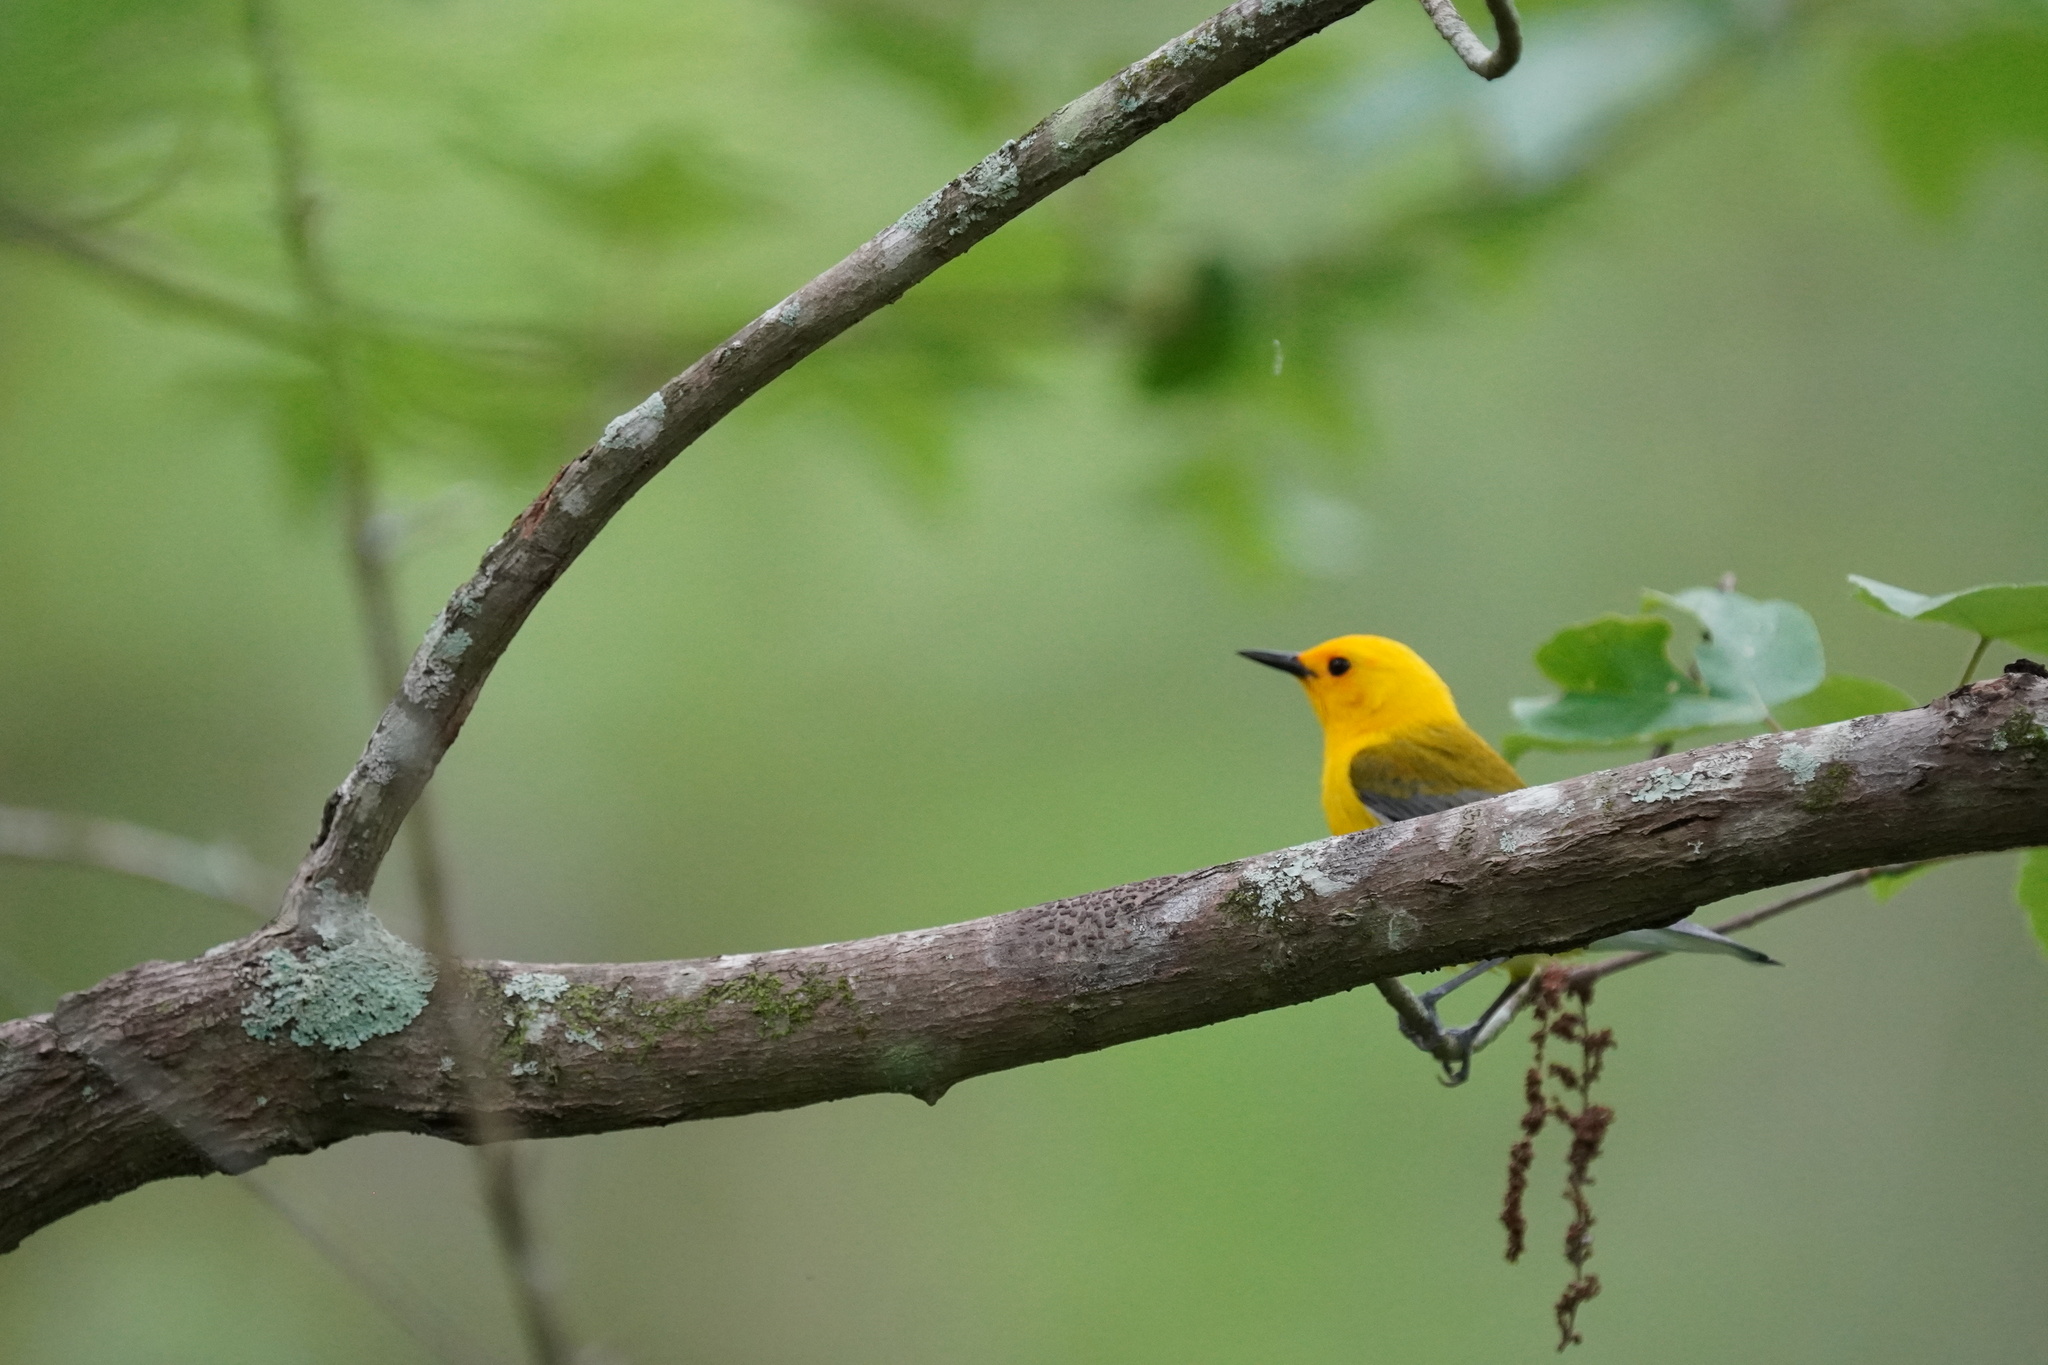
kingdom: Animalia
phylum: Chordata
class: Aves
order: Passeriformes
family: Parulidae
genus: Protonotaria
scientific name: Protonotaria citrea
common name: Prothonotary warbler
